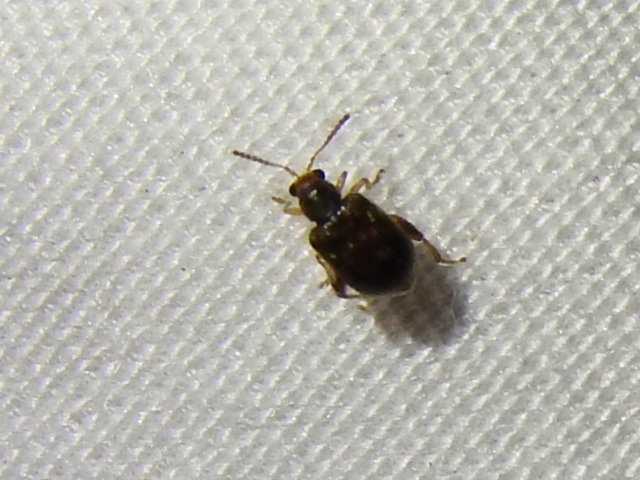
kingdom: Animalia
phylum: Arthropoda
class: Insecta
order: Coleoptera
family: Chrysomelidae
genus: Pseudolampis
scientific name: Pseudolampis guttata
